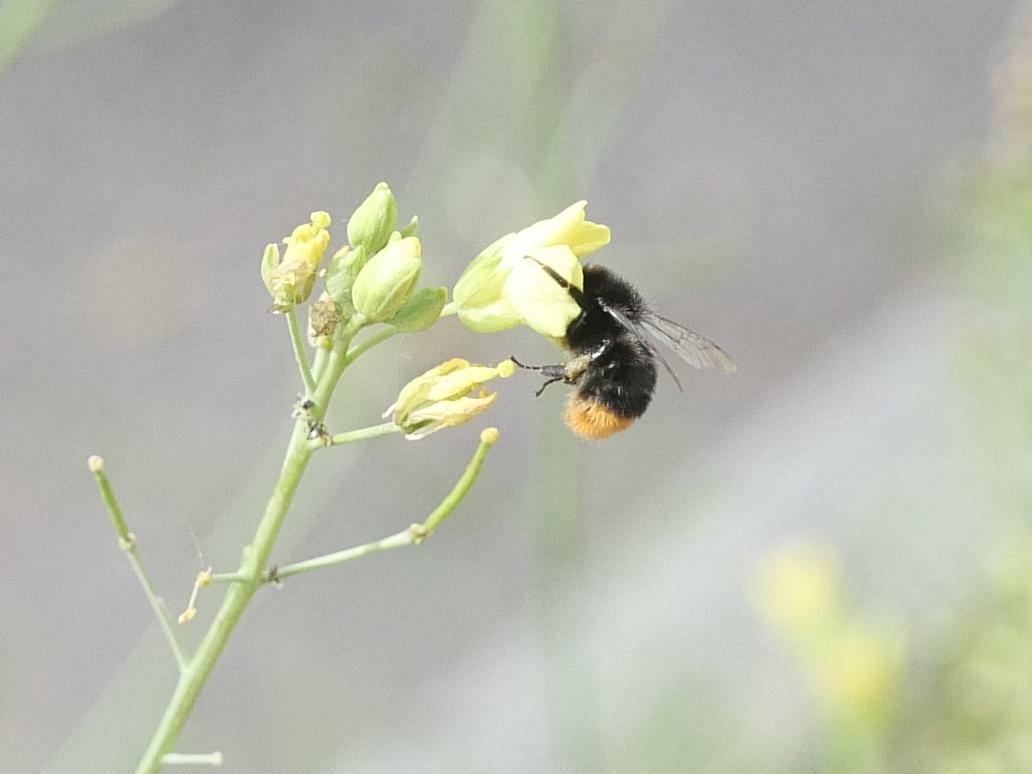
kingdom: Animalia
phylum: Arthropoda
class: Insecta
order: Hymenoptera
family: Apidae
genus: Bombus
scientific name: Bombus lapidarius
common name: Large red-tailed humble-bee
